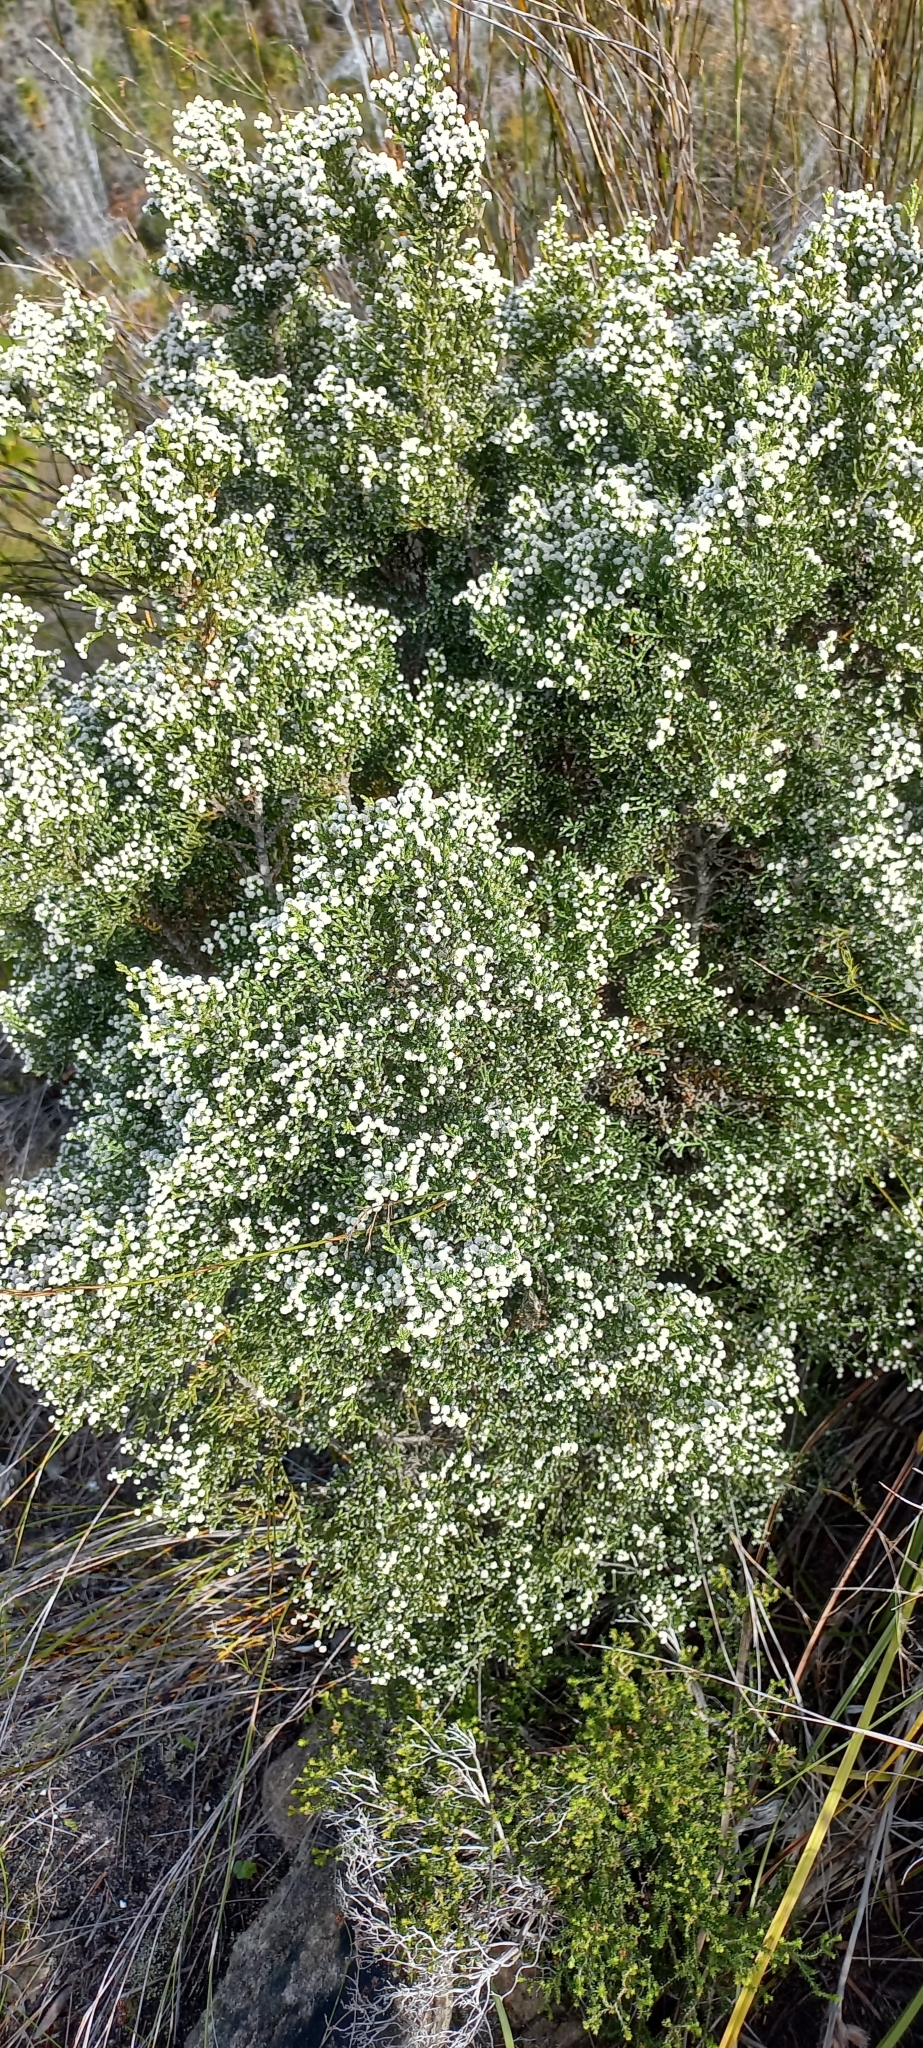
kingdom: Plantae
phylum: Tracheophyta
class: Magnoliopsida
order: Bruniales
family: Bruniaceae
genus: Brunia
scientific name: Brunia microphylla
